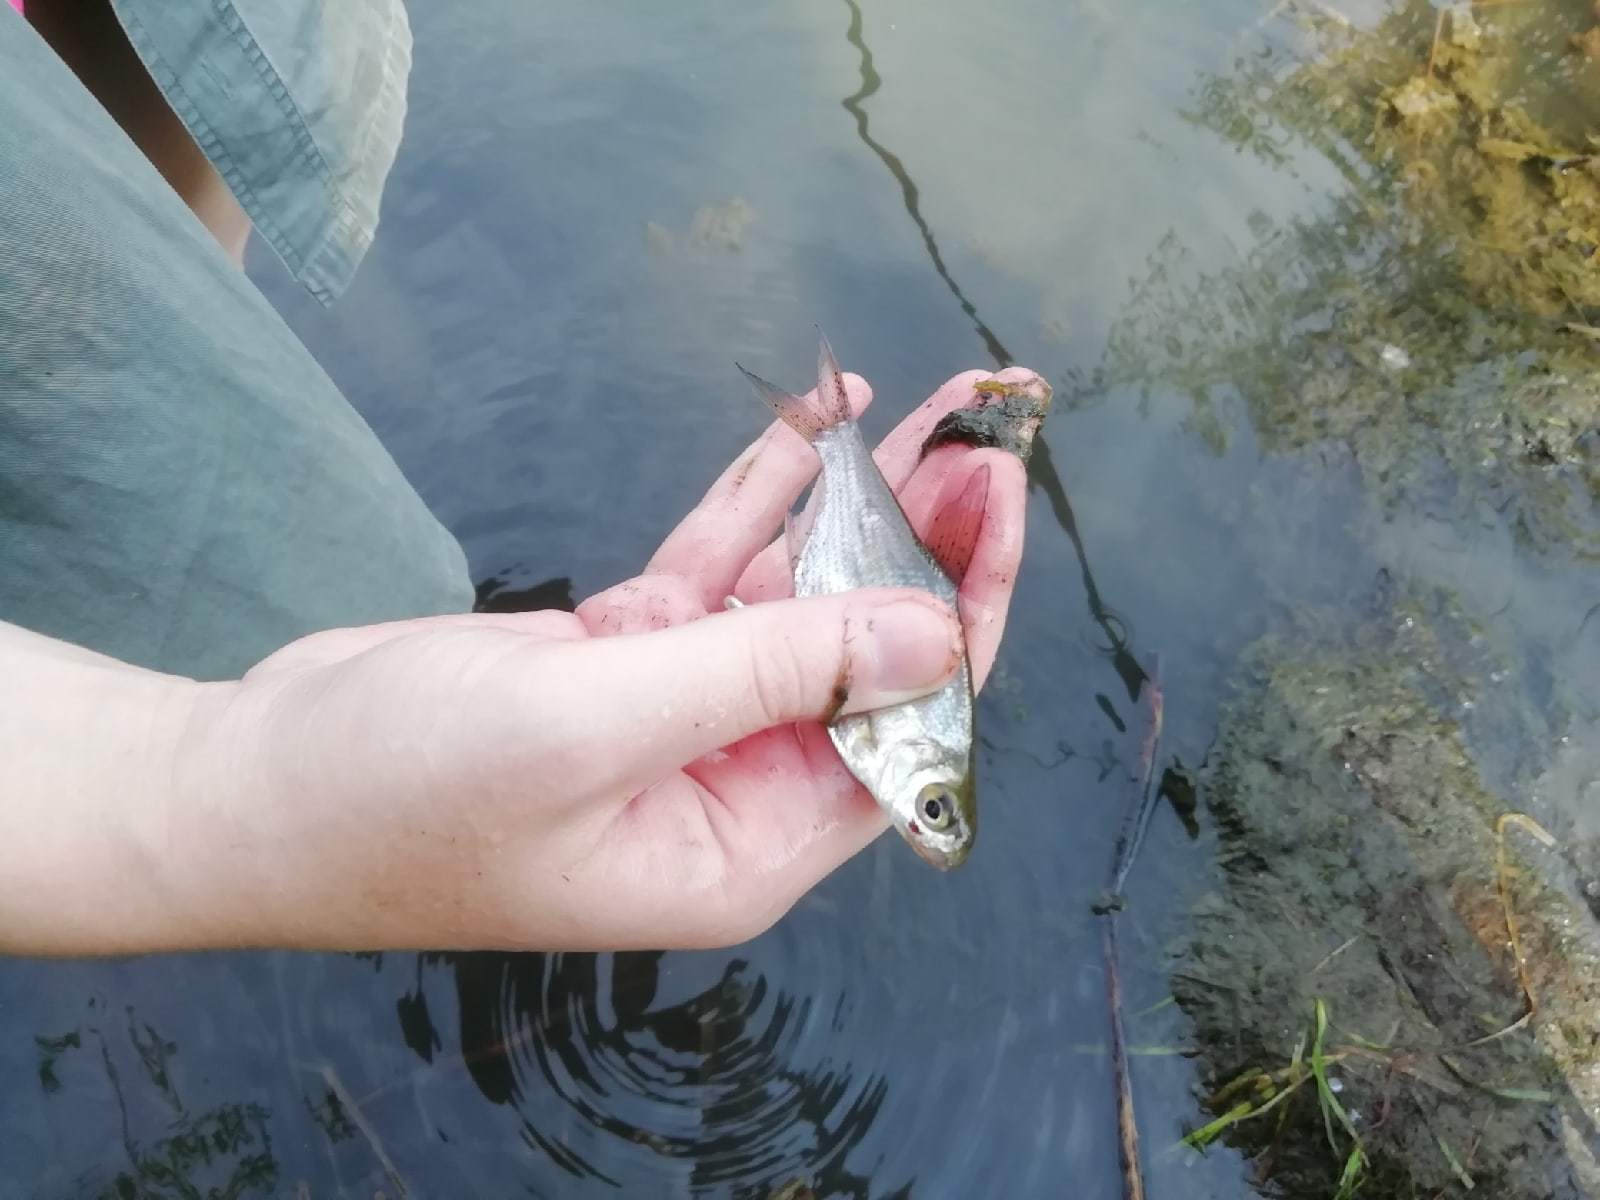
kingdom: Animalia
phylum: Chordata
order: Cypriniformes
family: Cyprinidae
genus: Ballerus
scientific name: Ballerus sapa
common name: White-eye bream
